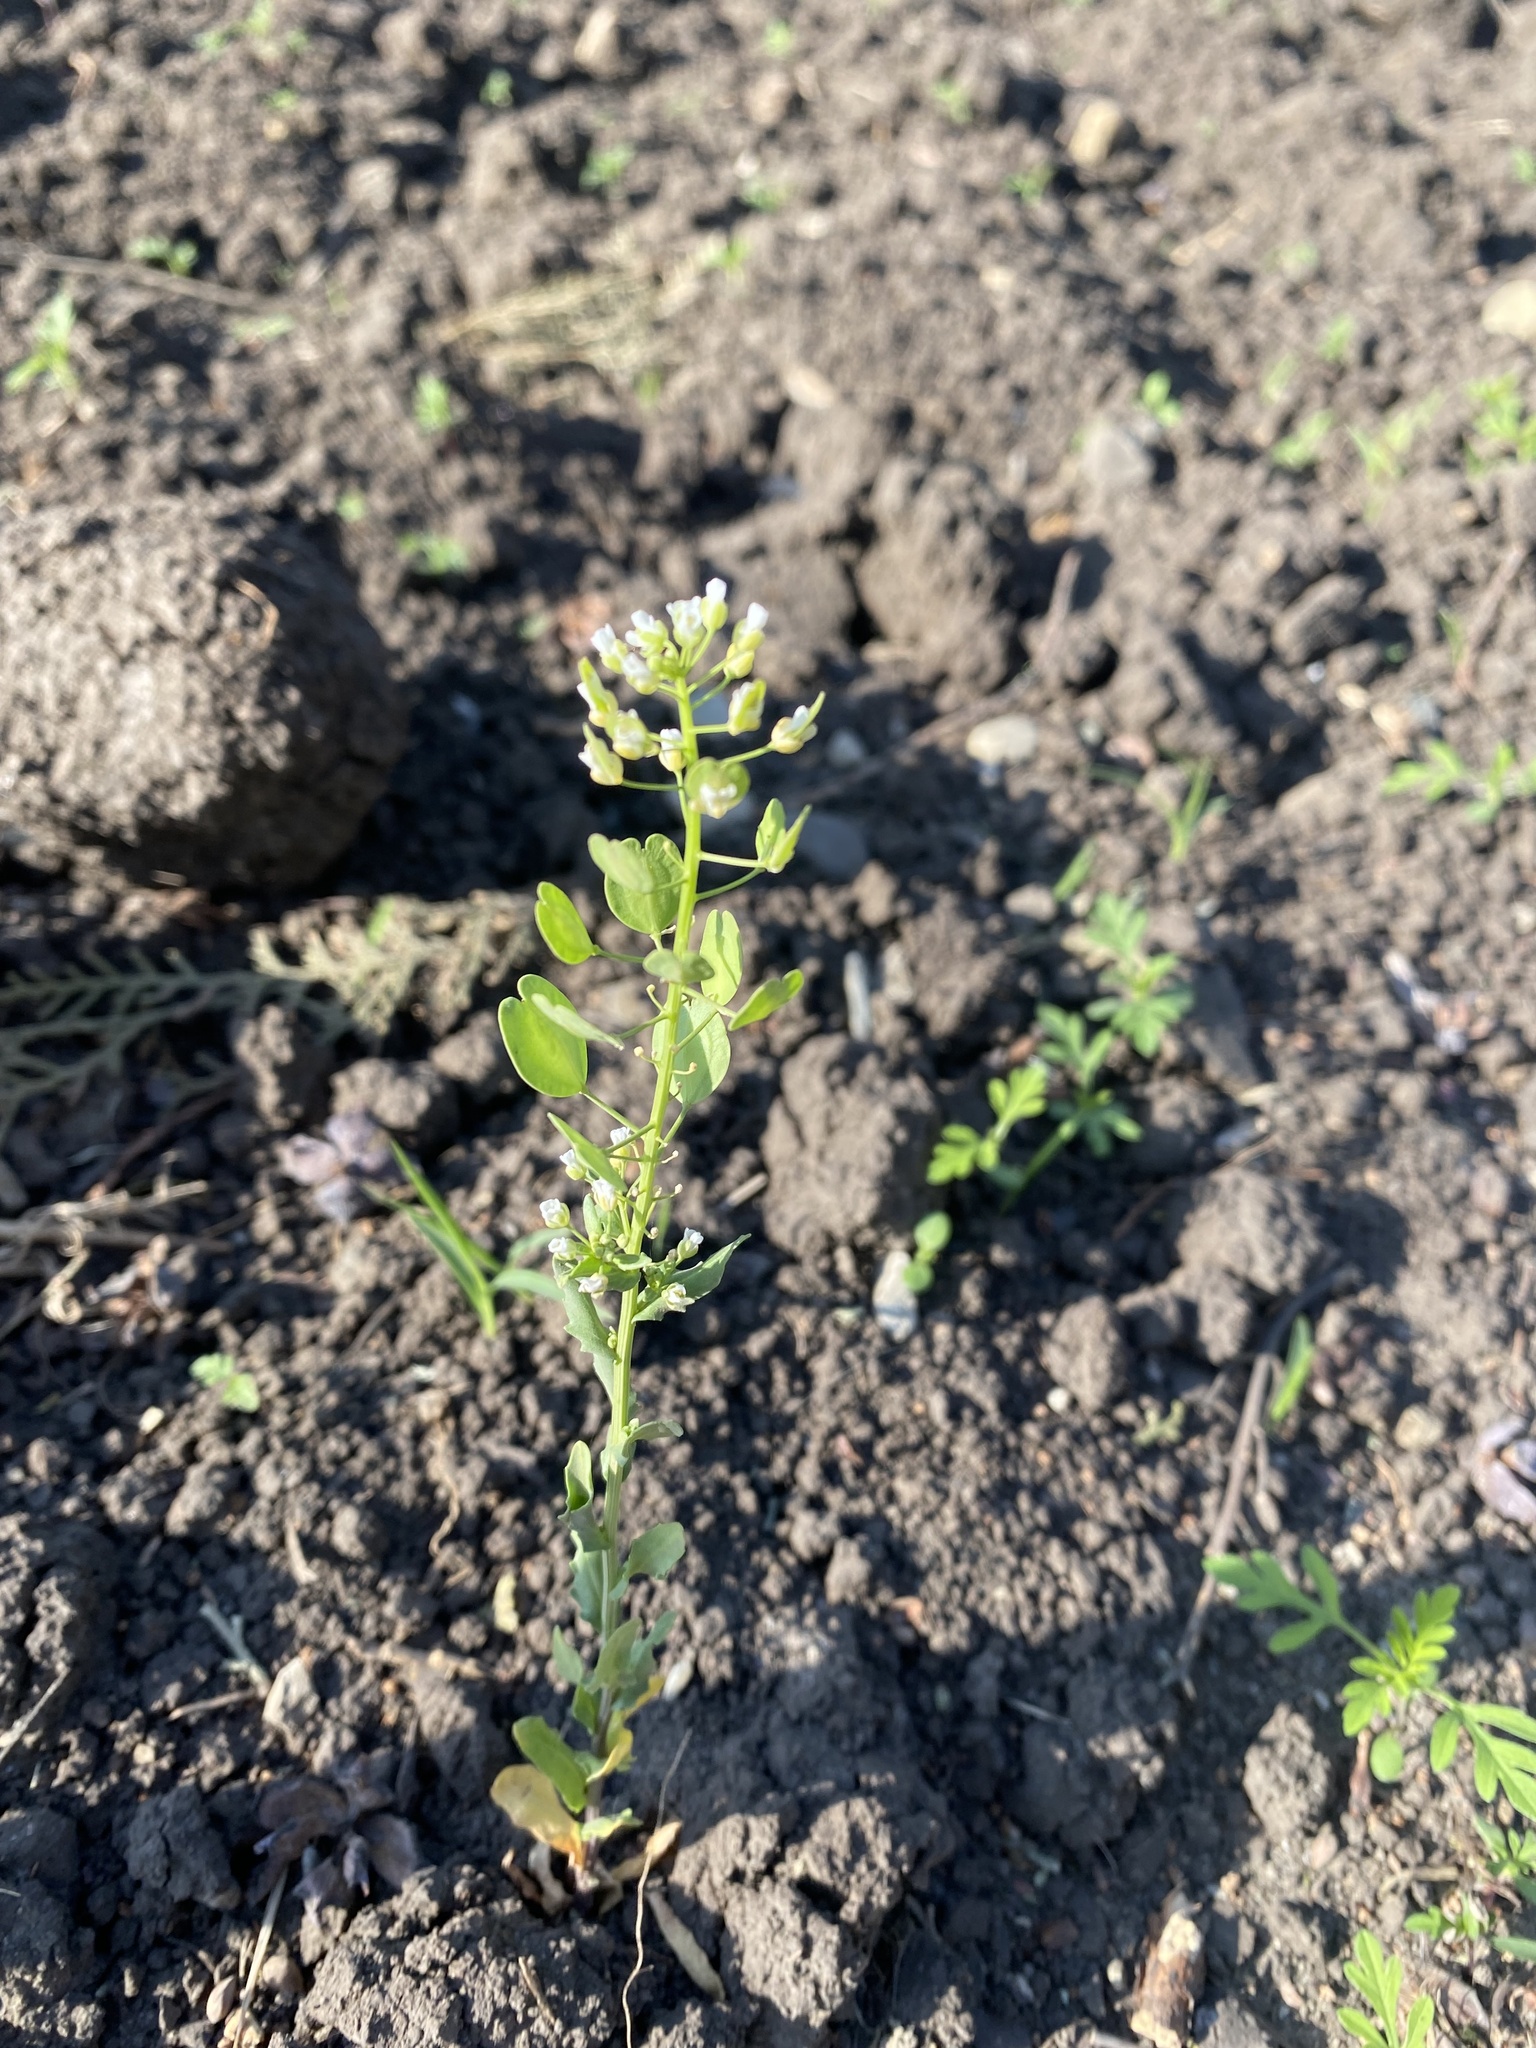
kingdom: Plantae
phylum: Tracheophyta
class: Magnoliopsida
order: Brassicales
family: Brassicaceae
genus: Thlaspi
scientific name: Thlaspi arvense
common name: Field pennycress
